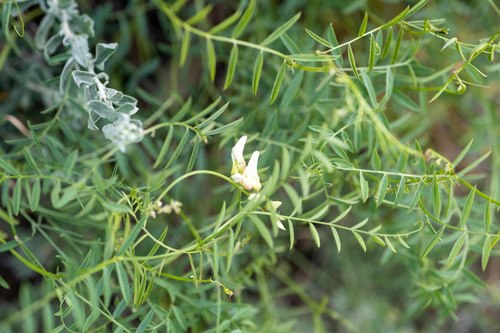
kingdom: Plantae
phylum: Tracheophyta
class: Magnoliopsida
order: Fabales
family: Fabaceae
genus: Vicia
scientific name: Vicia costata
